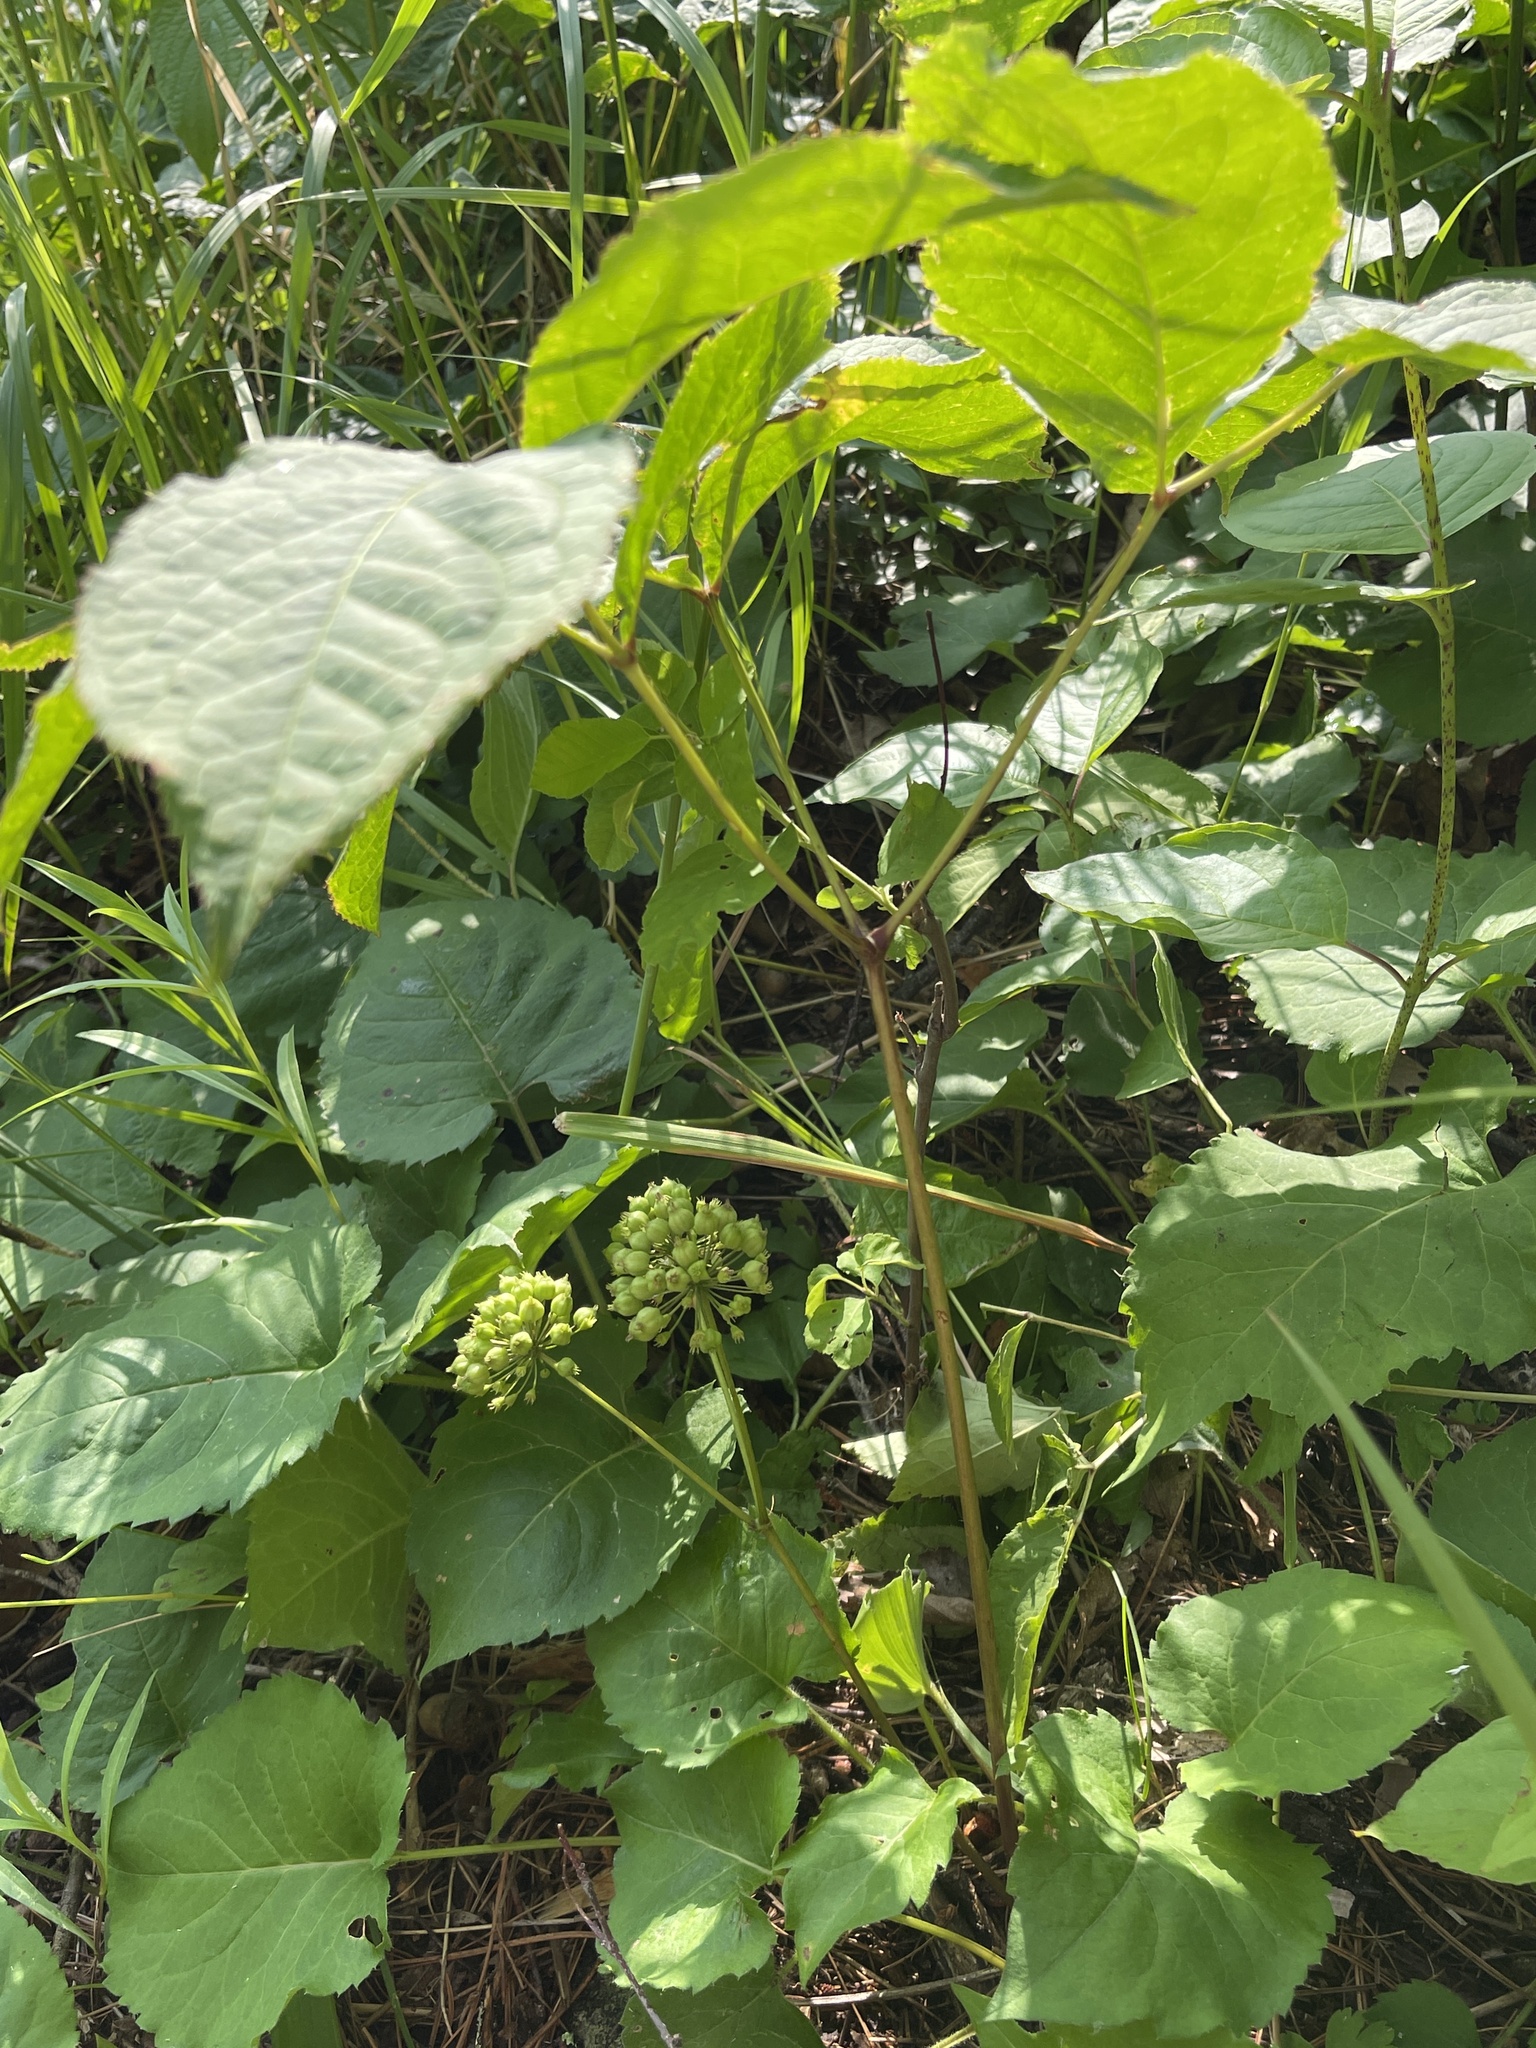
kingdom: Plantae
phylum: Tracheophyta
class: Magnoliopsida
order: Apiales
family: Araliaceae
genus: Aralia
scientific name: Aralia nudicaulis
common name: Wild sarsaparilla
